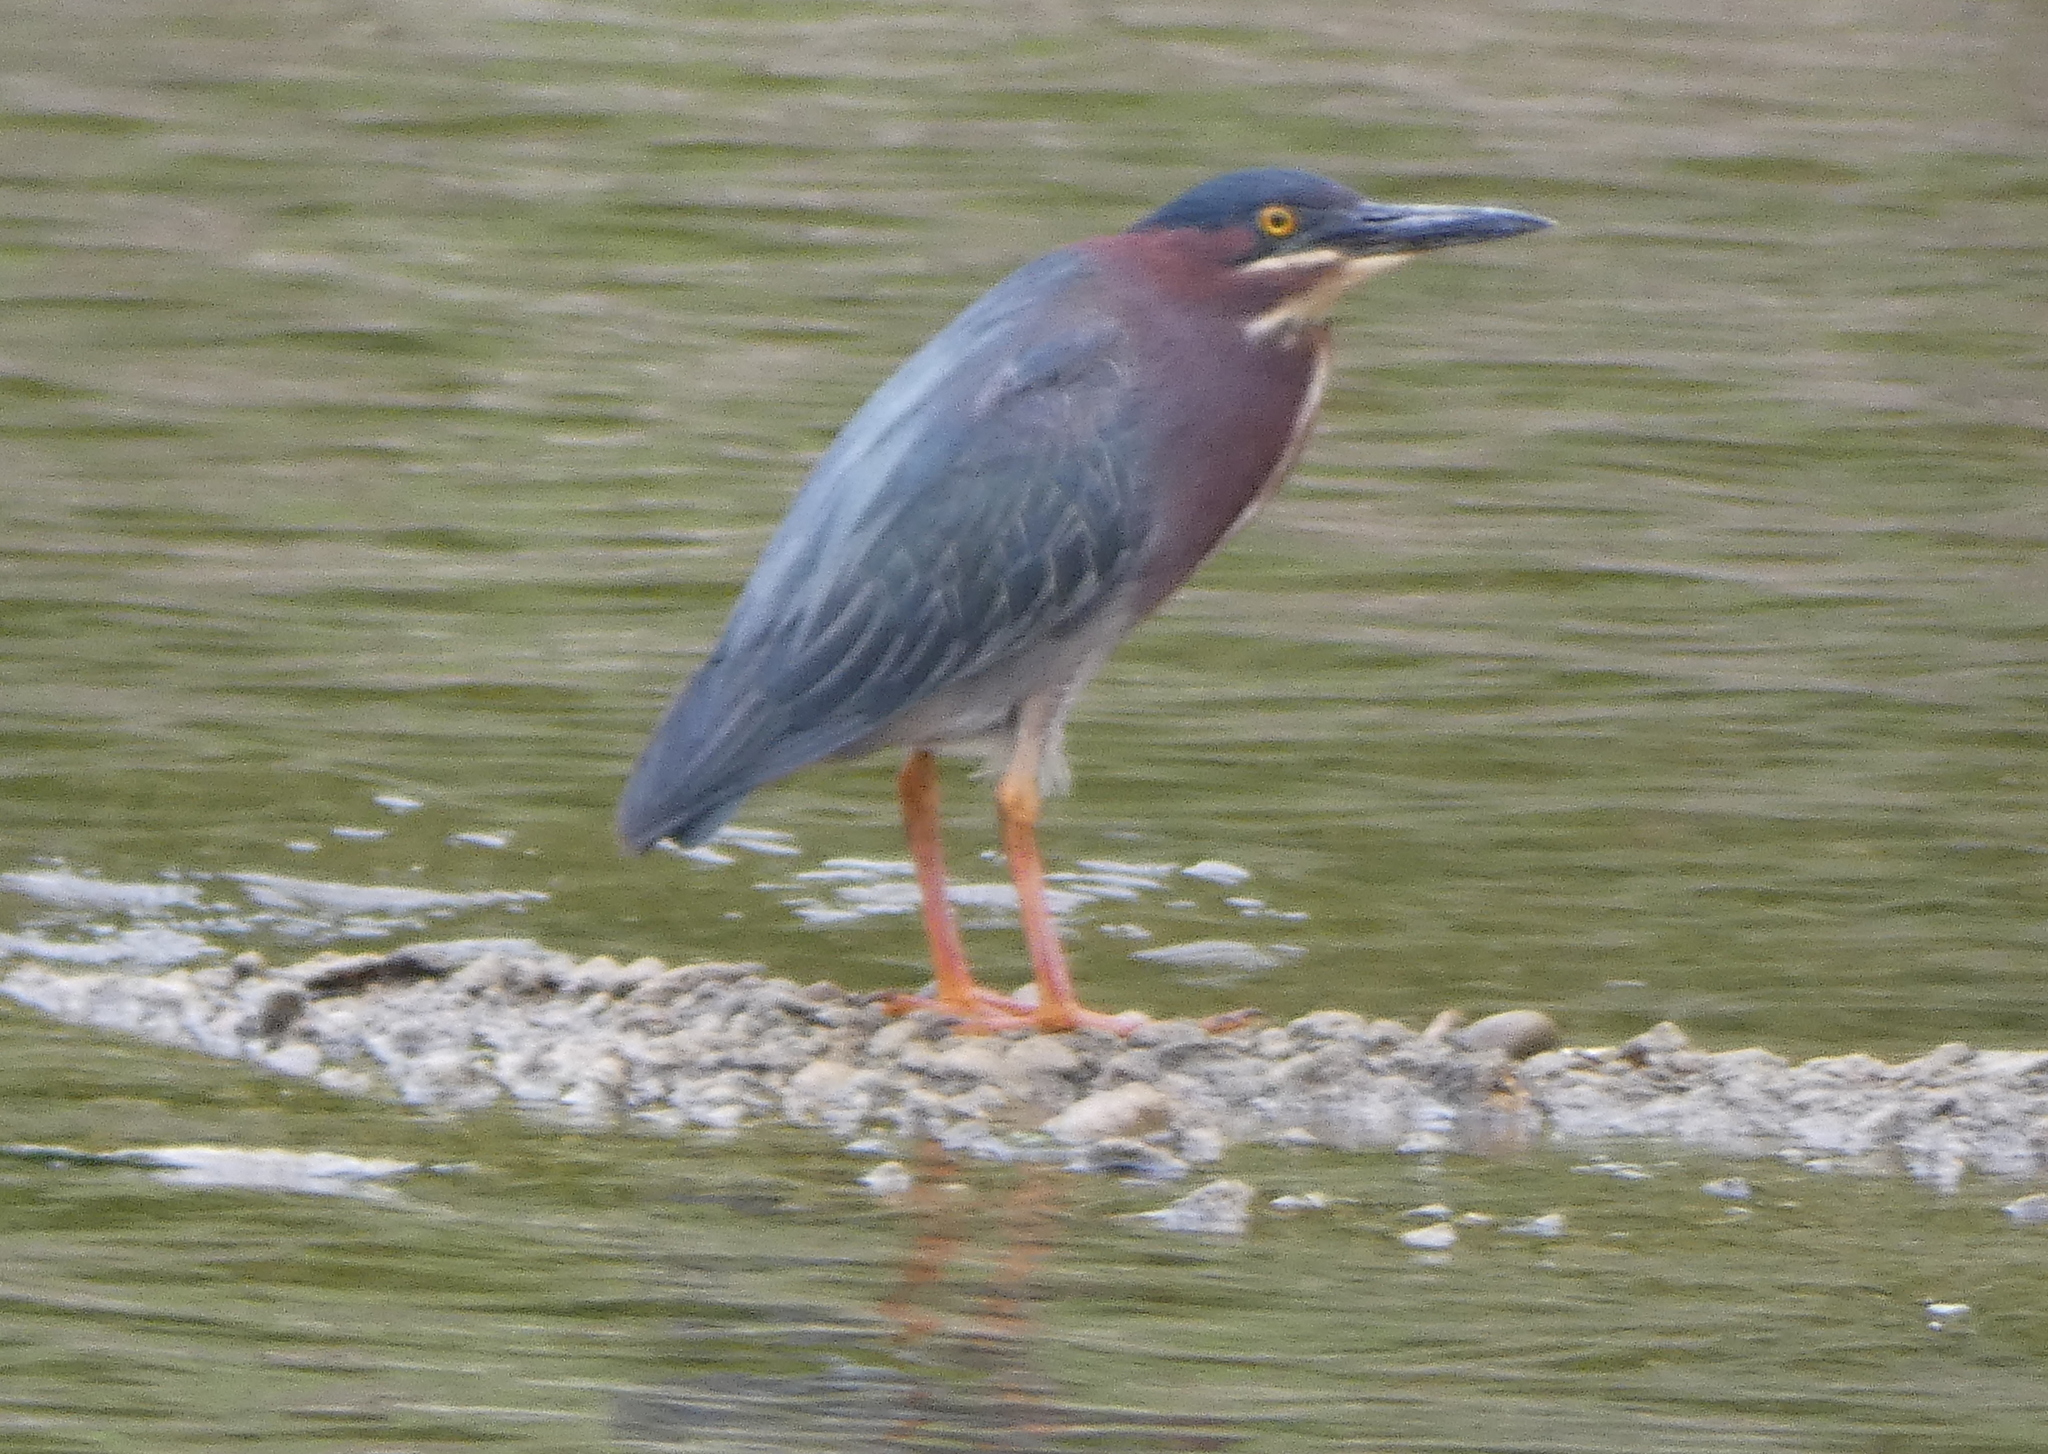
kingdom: Animalia
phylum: Chordata
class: Aves
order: Pelecaniformes
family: Ardeidae
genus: Butorides
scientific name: Butorides virescens
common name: Green heron
